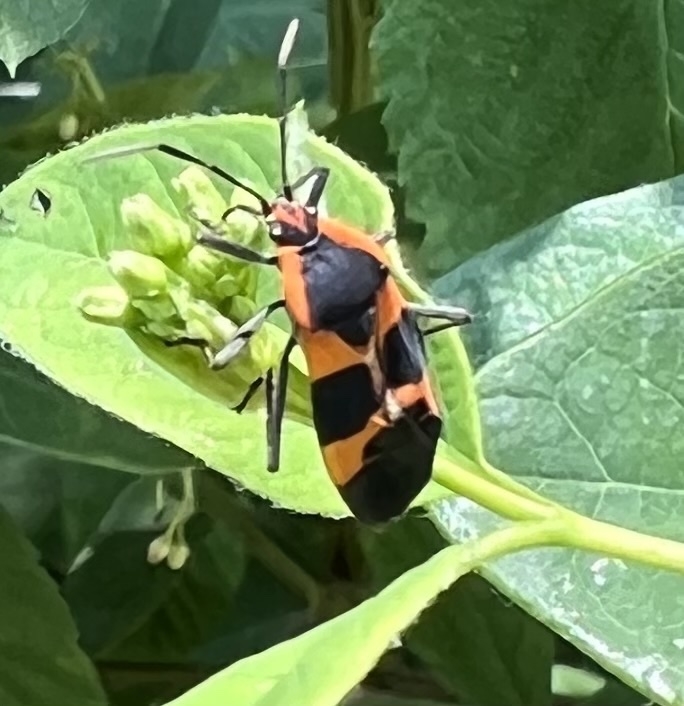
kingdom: Animalia
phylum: Arthropoda
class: Insecta
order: Hemiptera
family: Lygaeidae
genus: Oncopeltus
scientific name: Oncopeltus fasciatus
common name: Large milkweed bug
